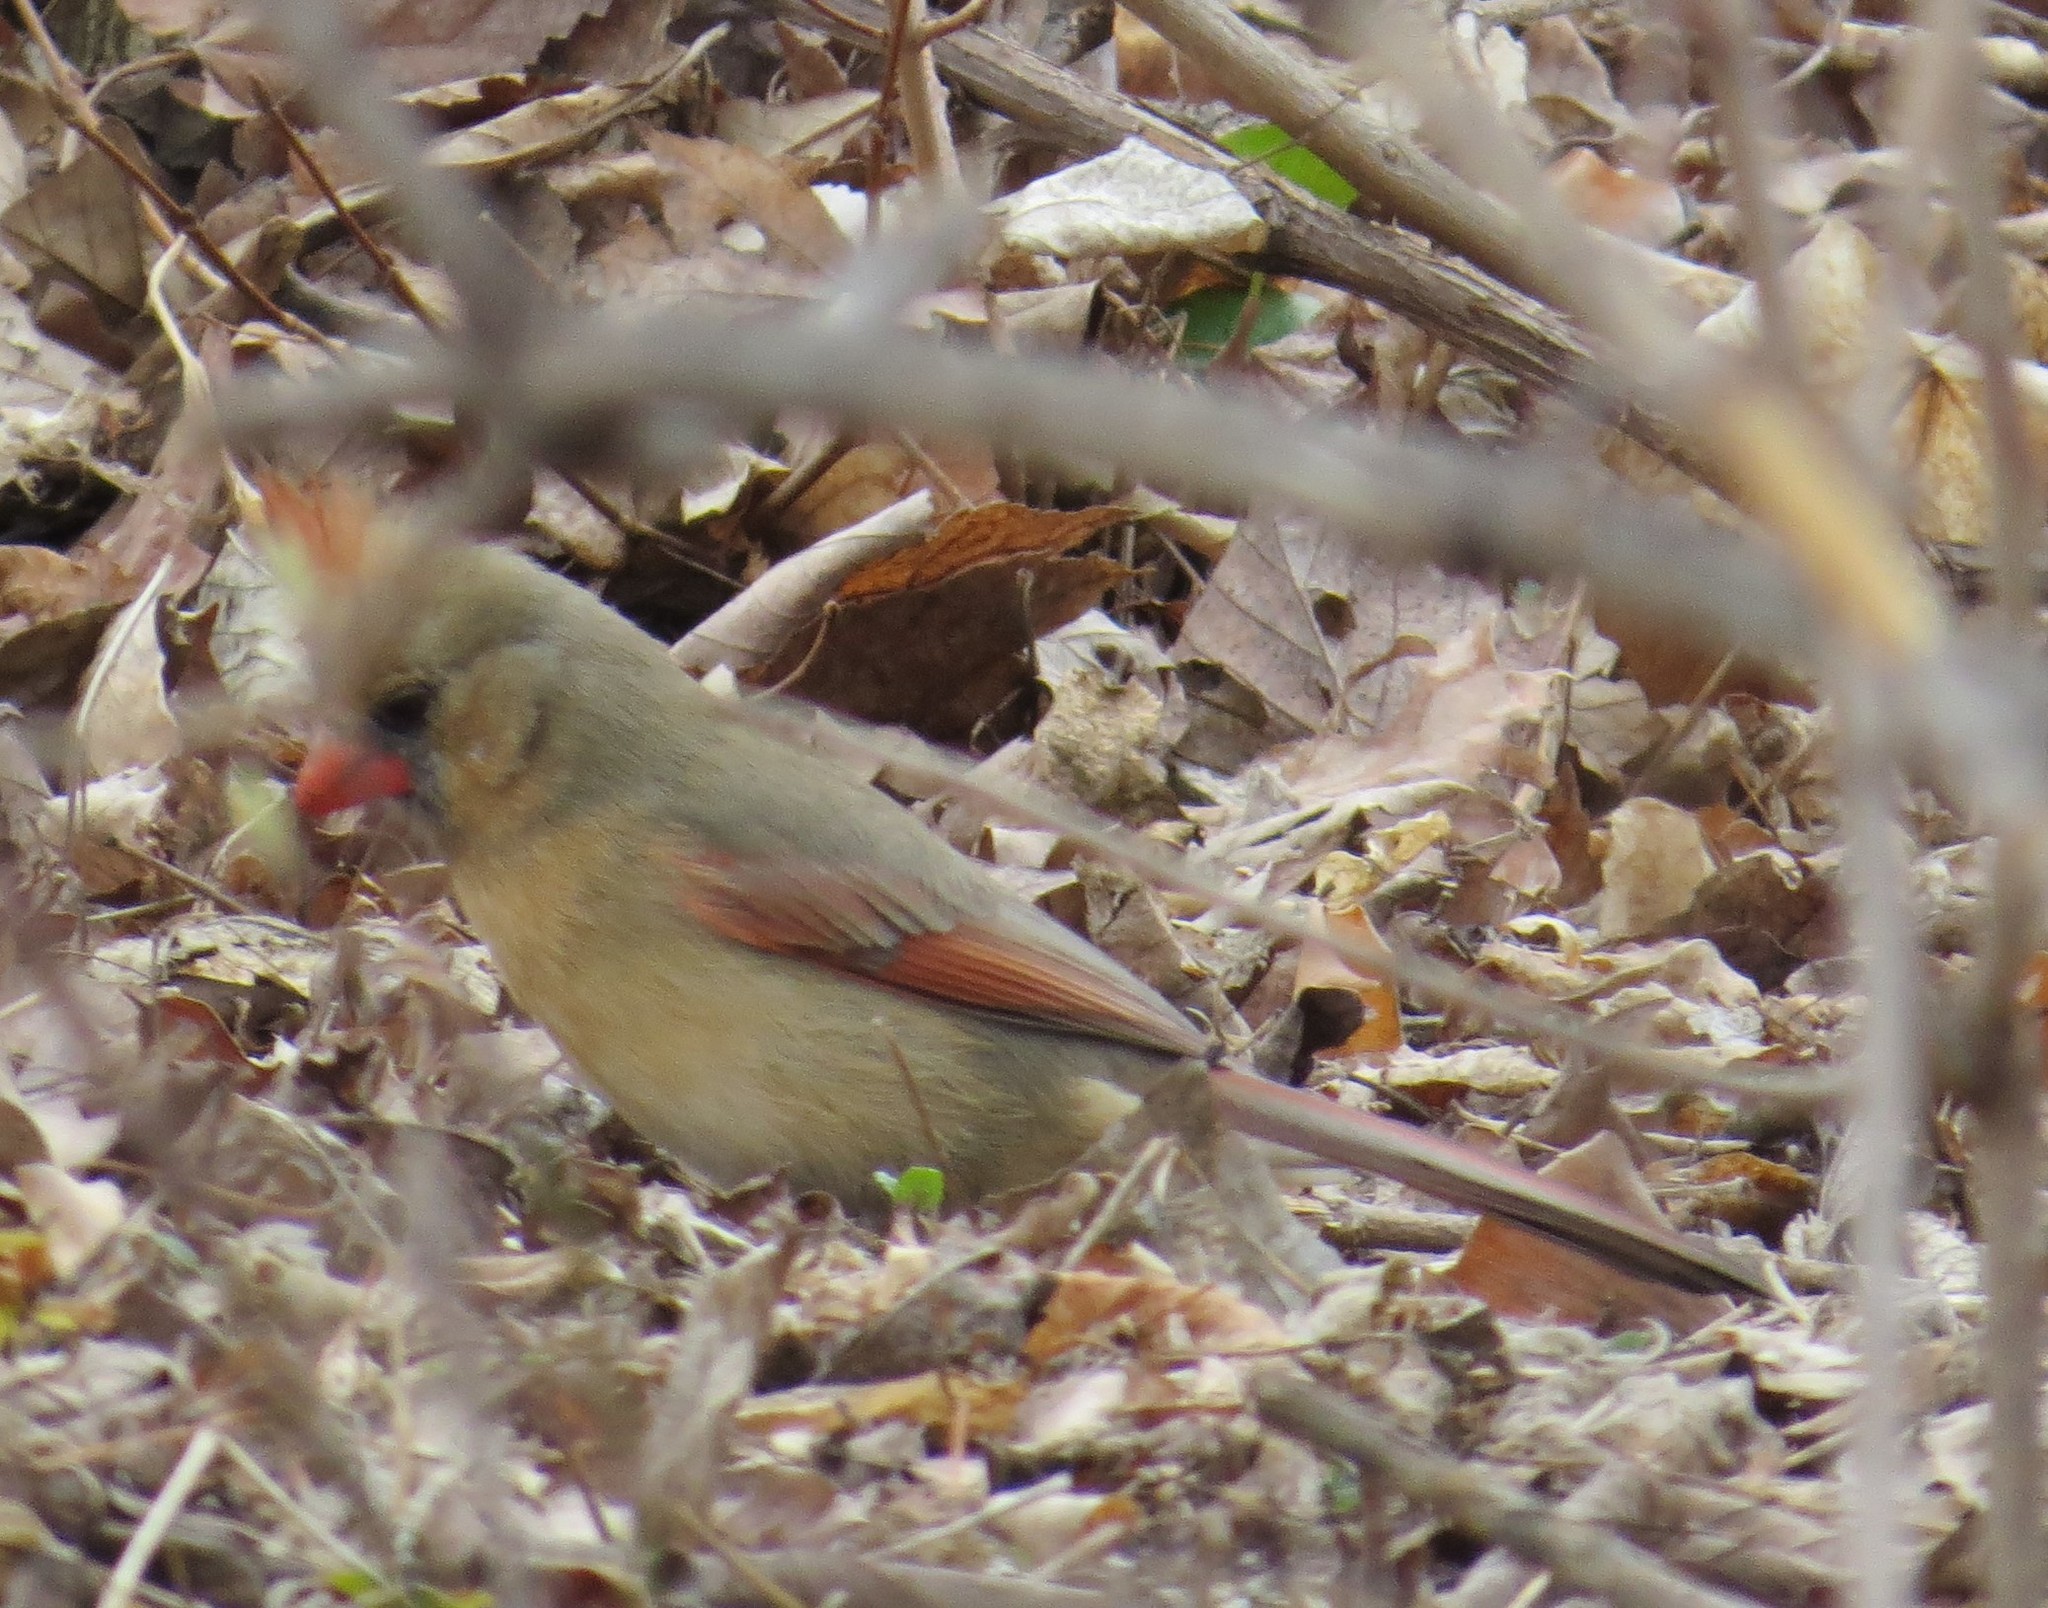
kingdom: Animalia
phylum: Chordata
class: Aves
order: Passeriformes
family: Cardinalidae
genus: Cardinalis
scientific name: Cardinalis cardinalis
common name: Northern cardinal
